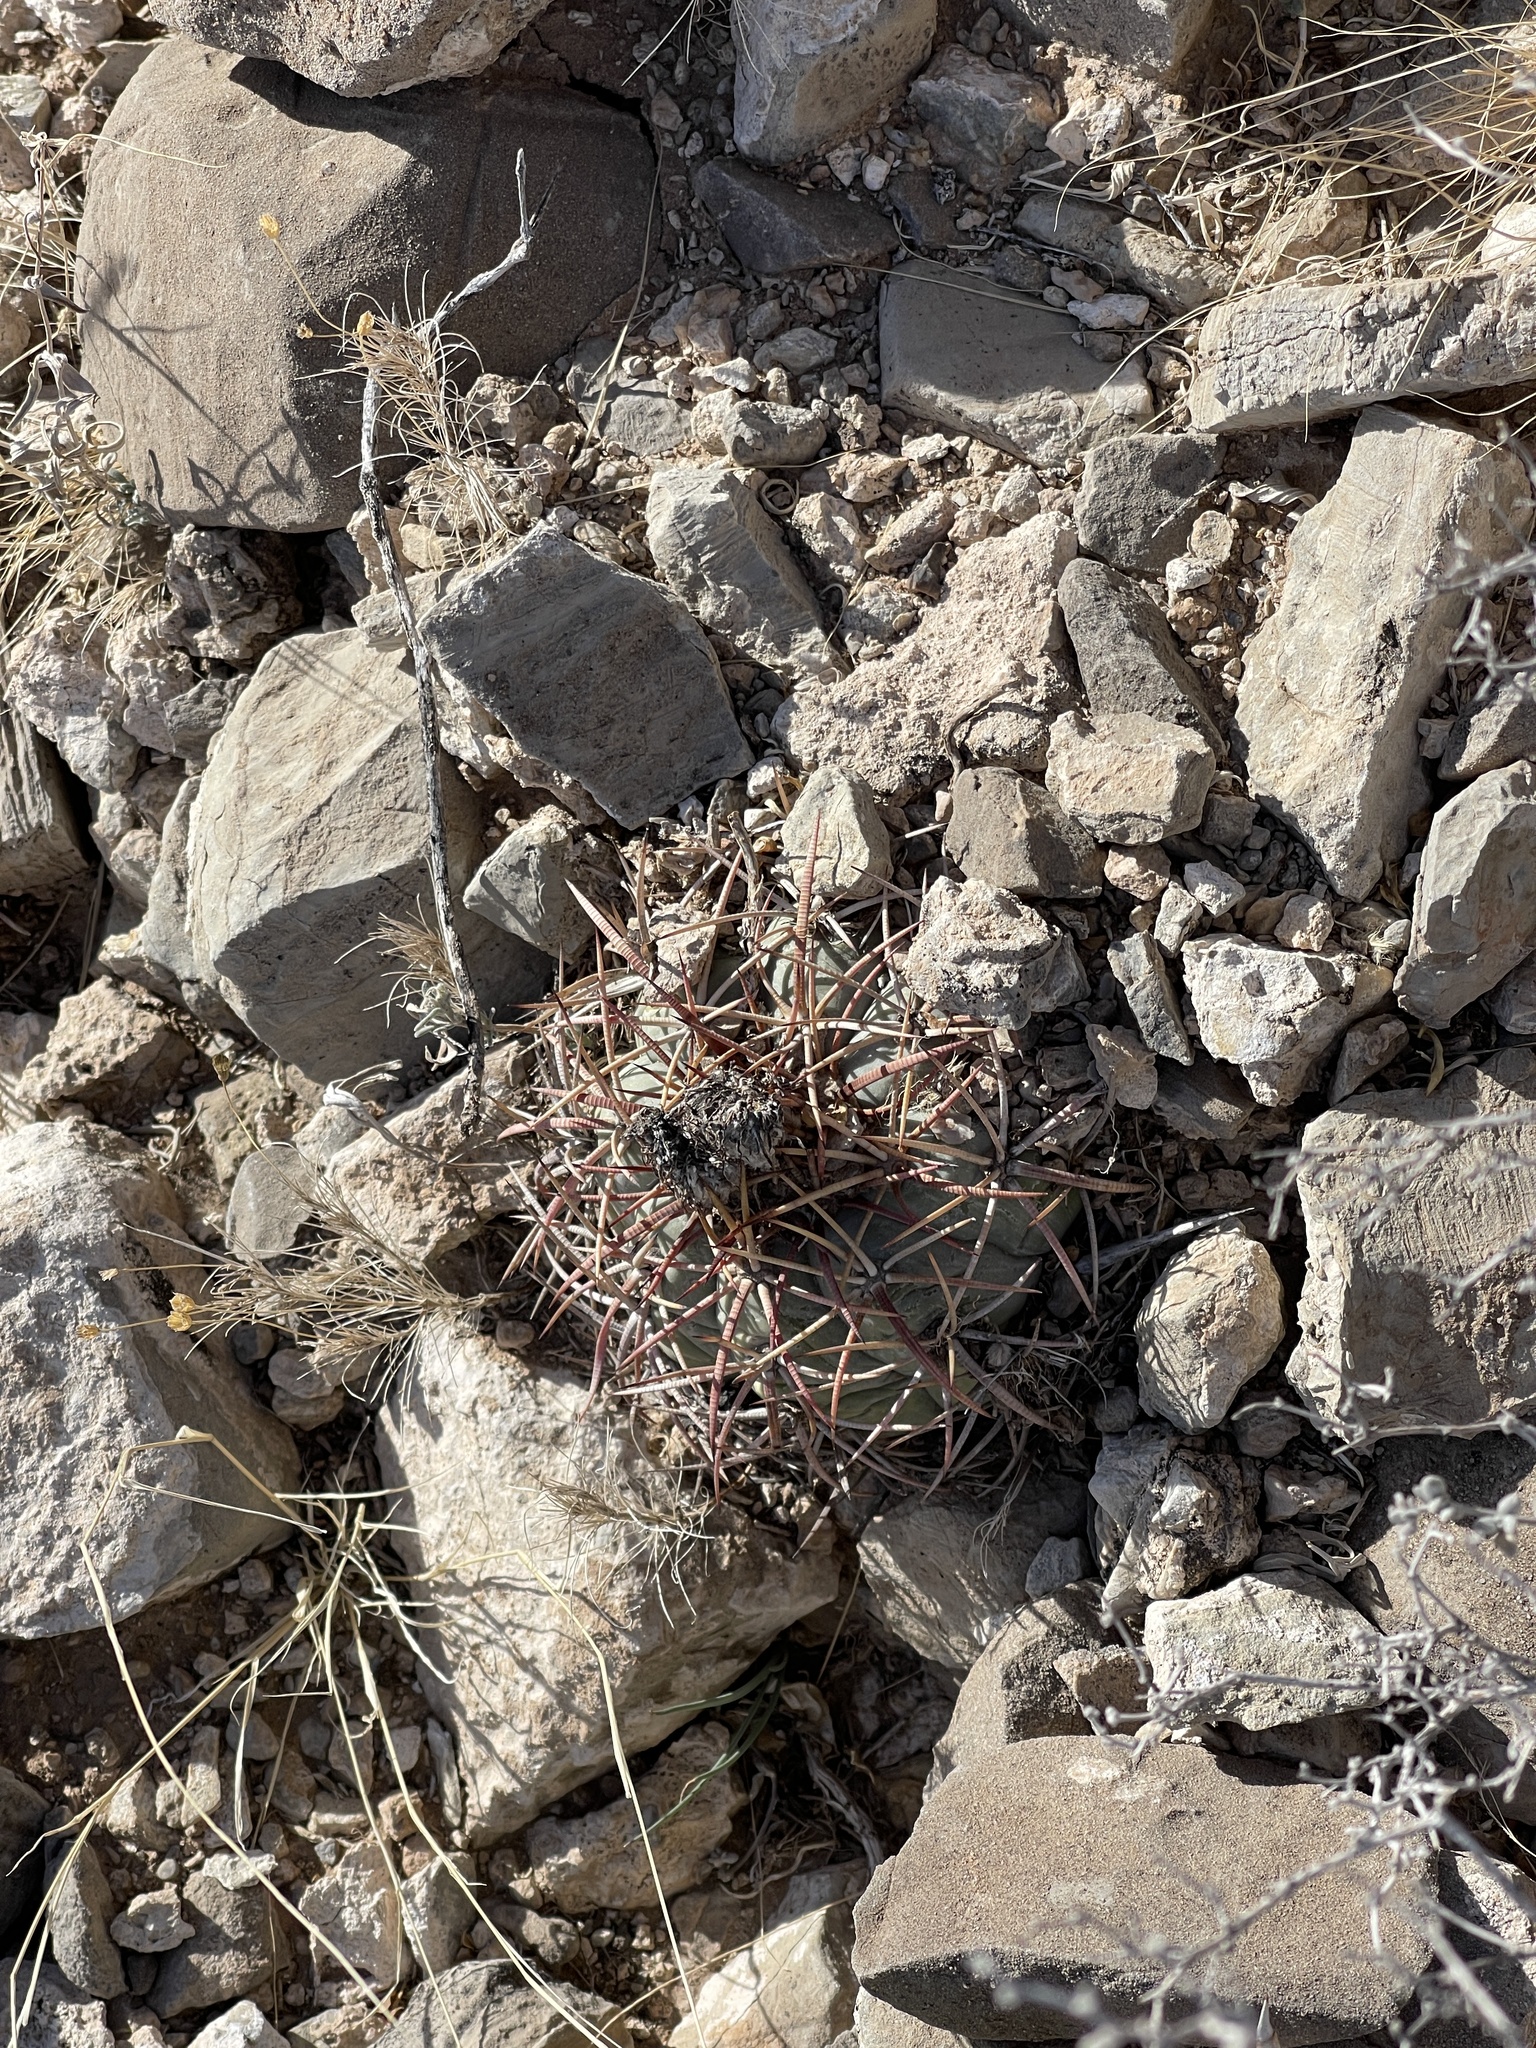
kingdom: Plantae
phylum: Tracheophyta
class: Magnoliopsida
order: Caryophyllales
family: Cactaceae
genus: Echinocactus
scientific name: Echinocactus horizonthalonius
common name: Devilshead
